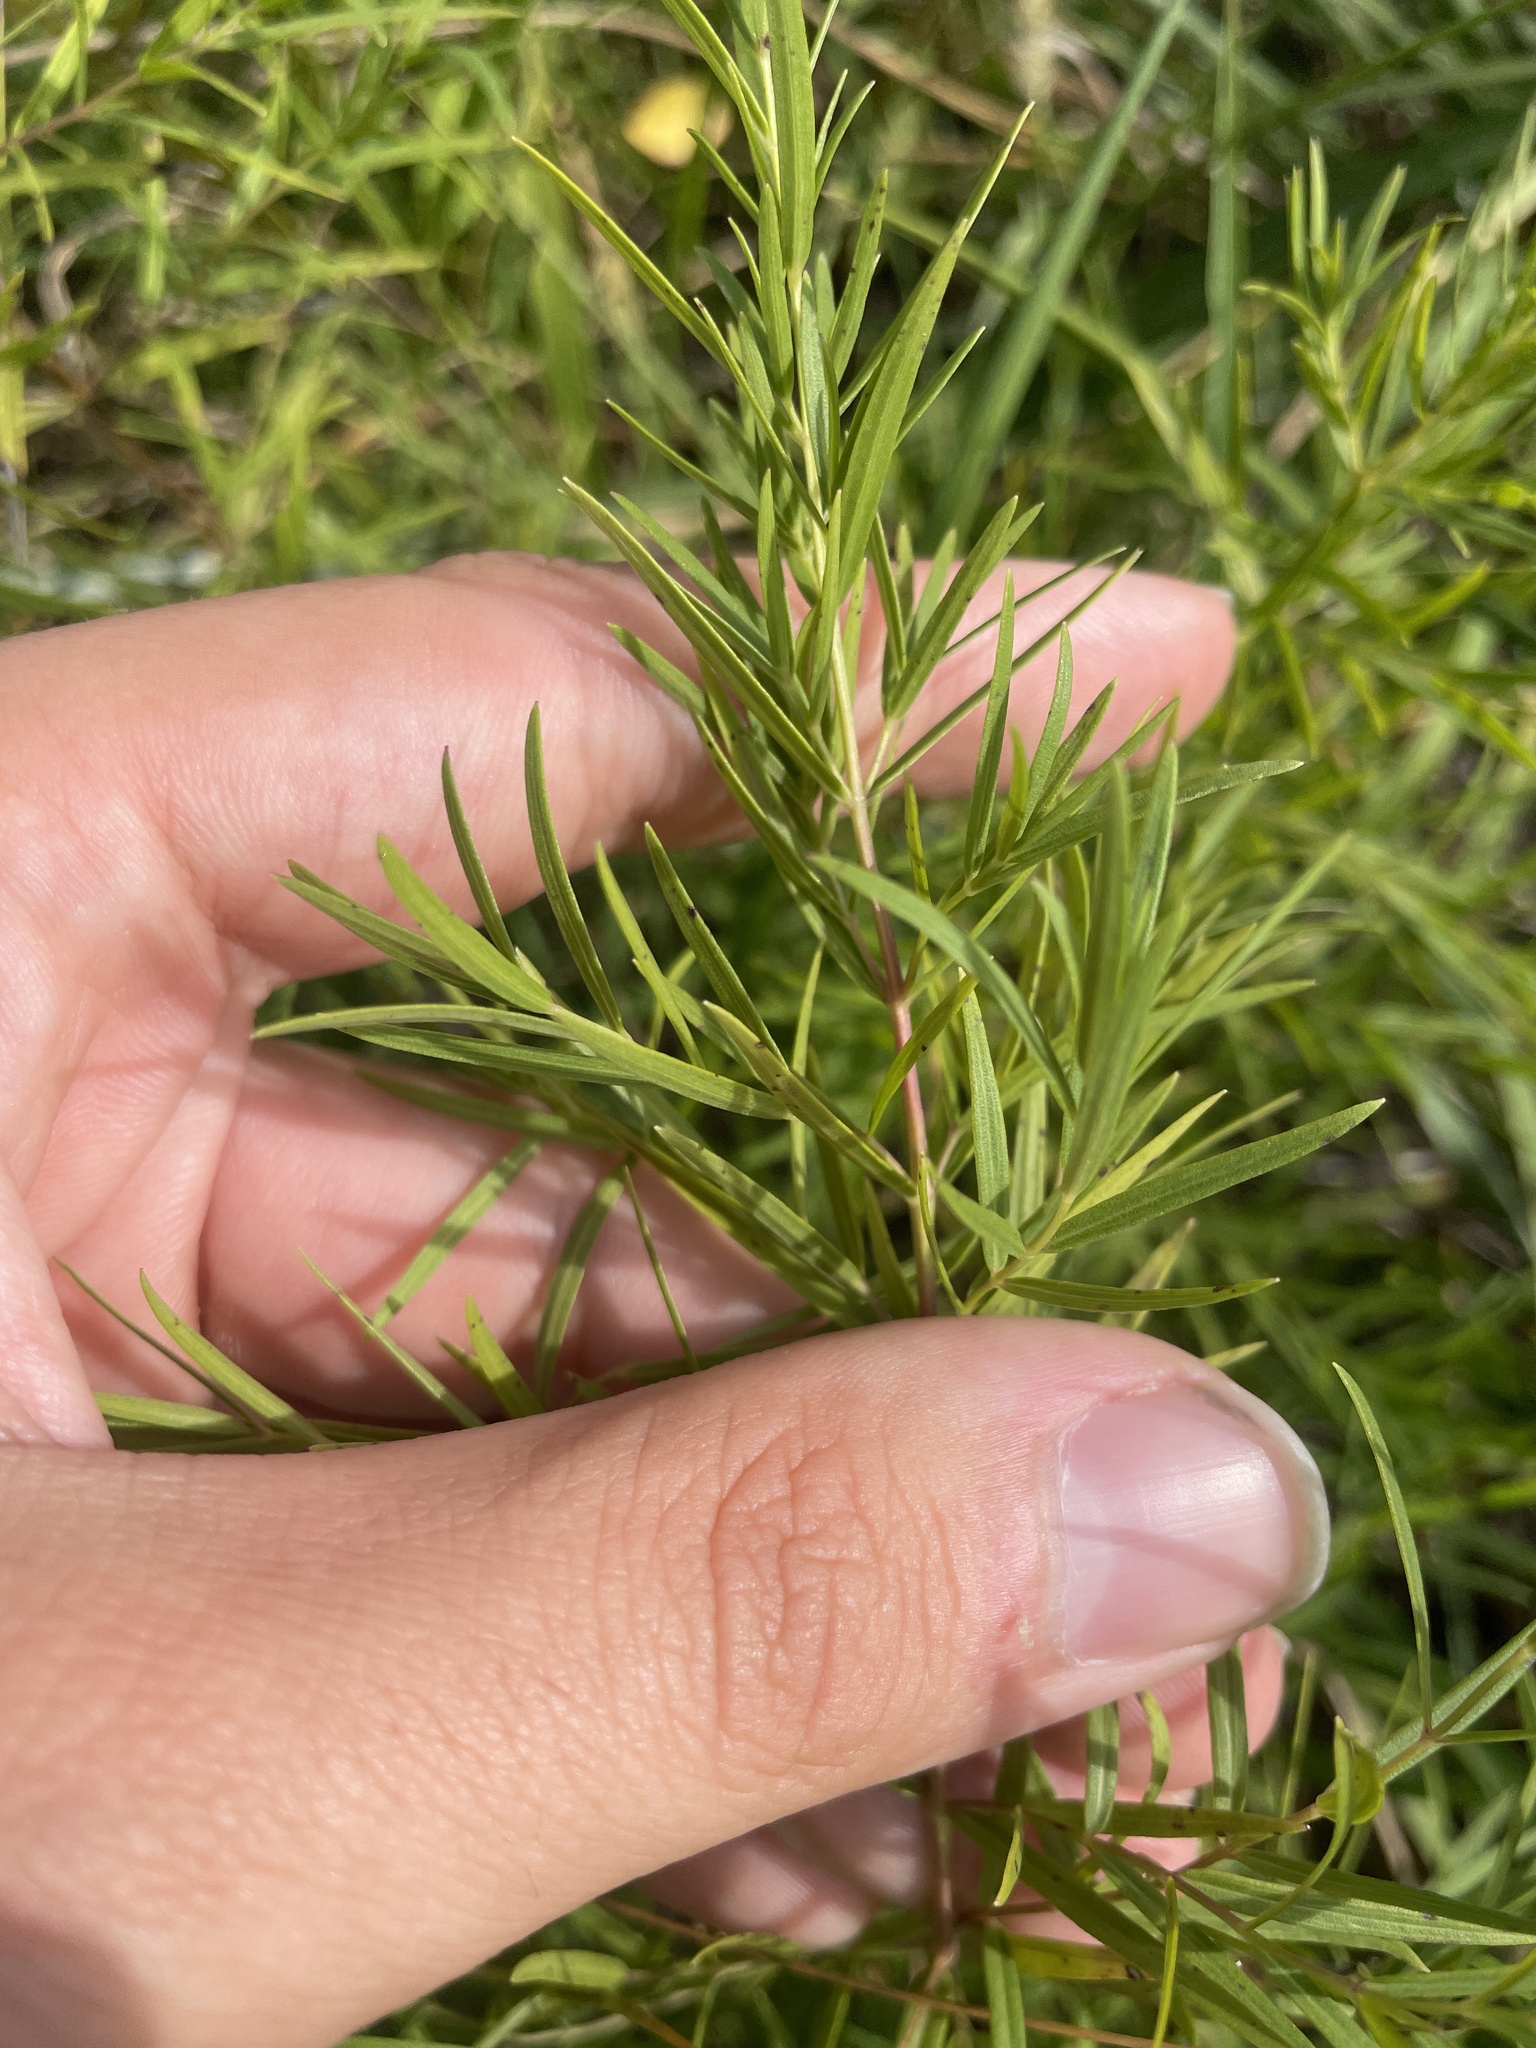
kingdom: Plantae
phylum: Tracheophyta
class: Magnoliopsida
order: Lamiales
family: Lamiaceae
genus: Pycnanthemum
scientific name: Pycnanthemum tenuifolium
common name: Narrow-leaf mountain-mint
